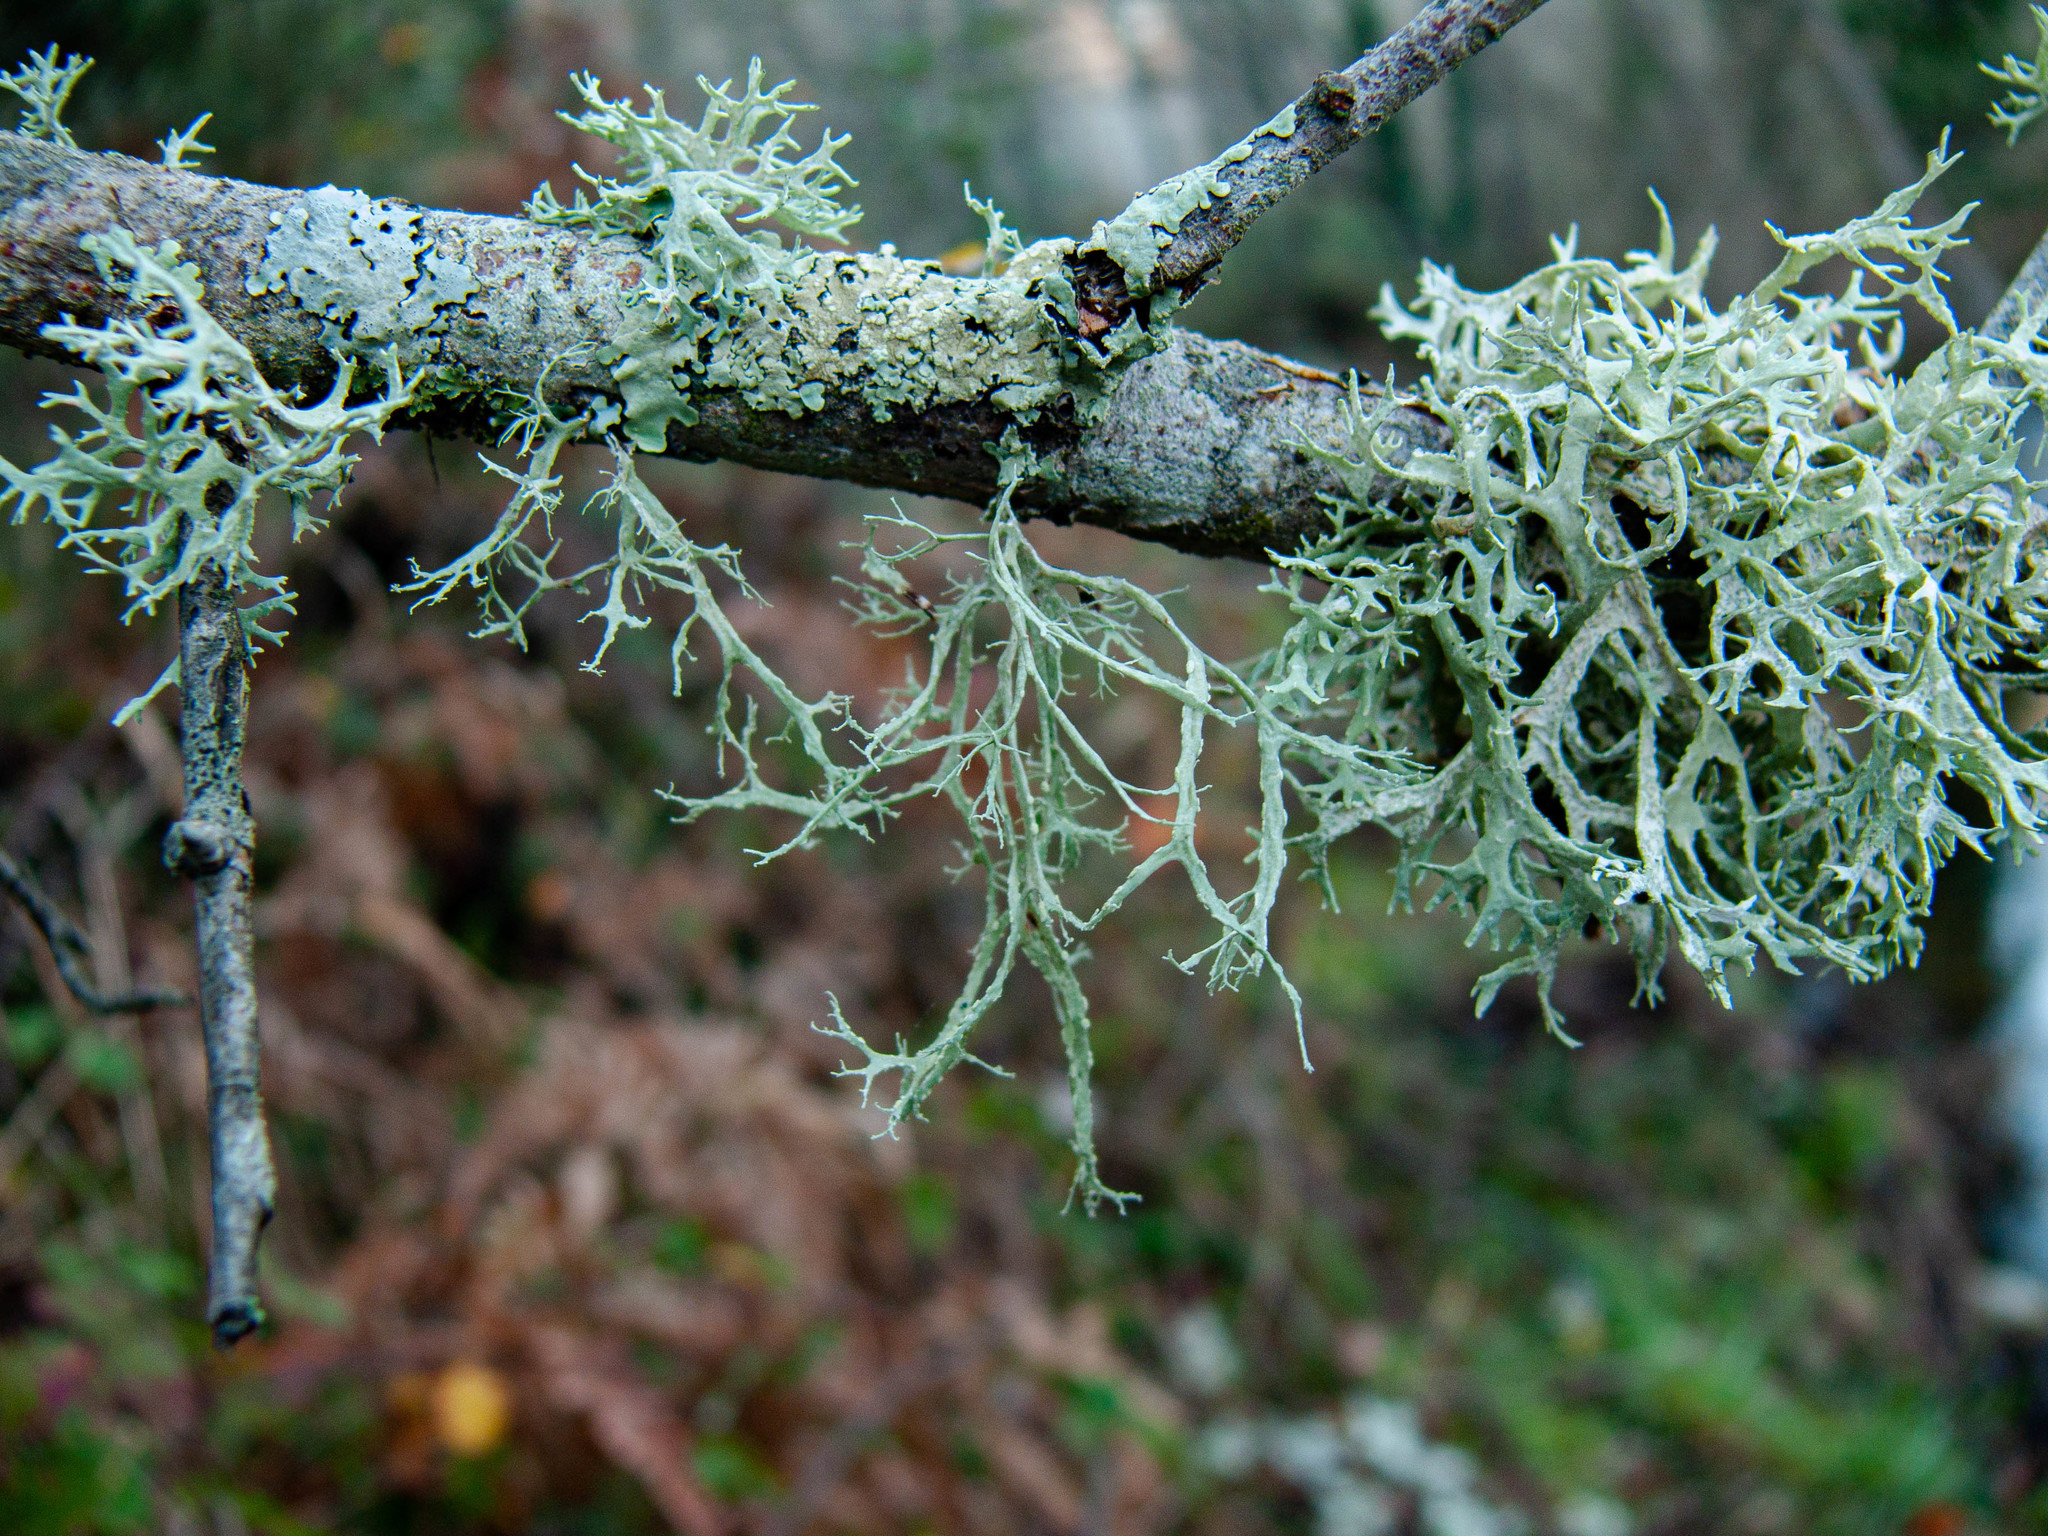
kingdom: Fungi
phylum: Ascomycota
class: Lecanoromycetes
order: Lecanorales
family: Ramalinaceae
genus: Ramalina
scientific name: Ramalina farinacea
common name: Farinose cartilage lichen
